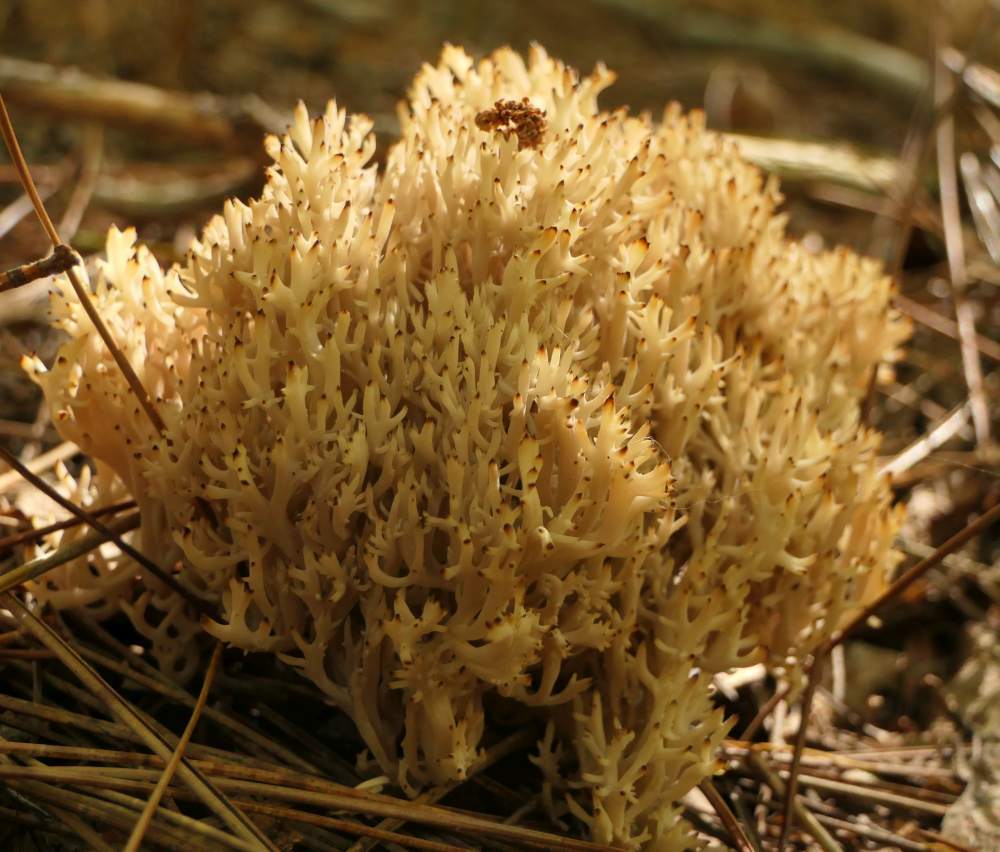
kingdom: Fungi
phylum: Basidiomycota
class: Agaricomycetes
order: Cantharellales
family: Hydnaceae
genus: Clavulina
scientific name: Clavulina coralloides
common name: Crested coral
